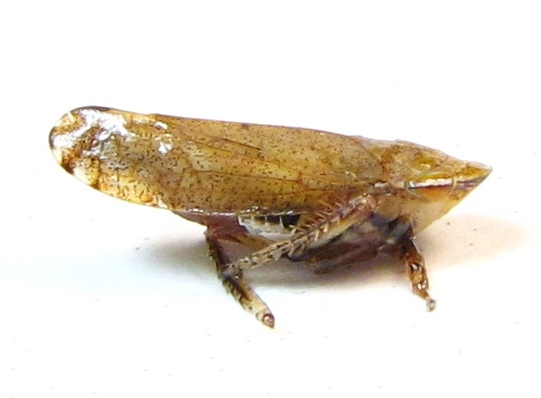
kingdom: Animalia
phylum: Arthropoda
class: Insecta
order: Hemiptera
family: Cicadellidae
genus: Fieberiella
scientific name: Fieberiella florii
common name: Flor’s leafhopper
